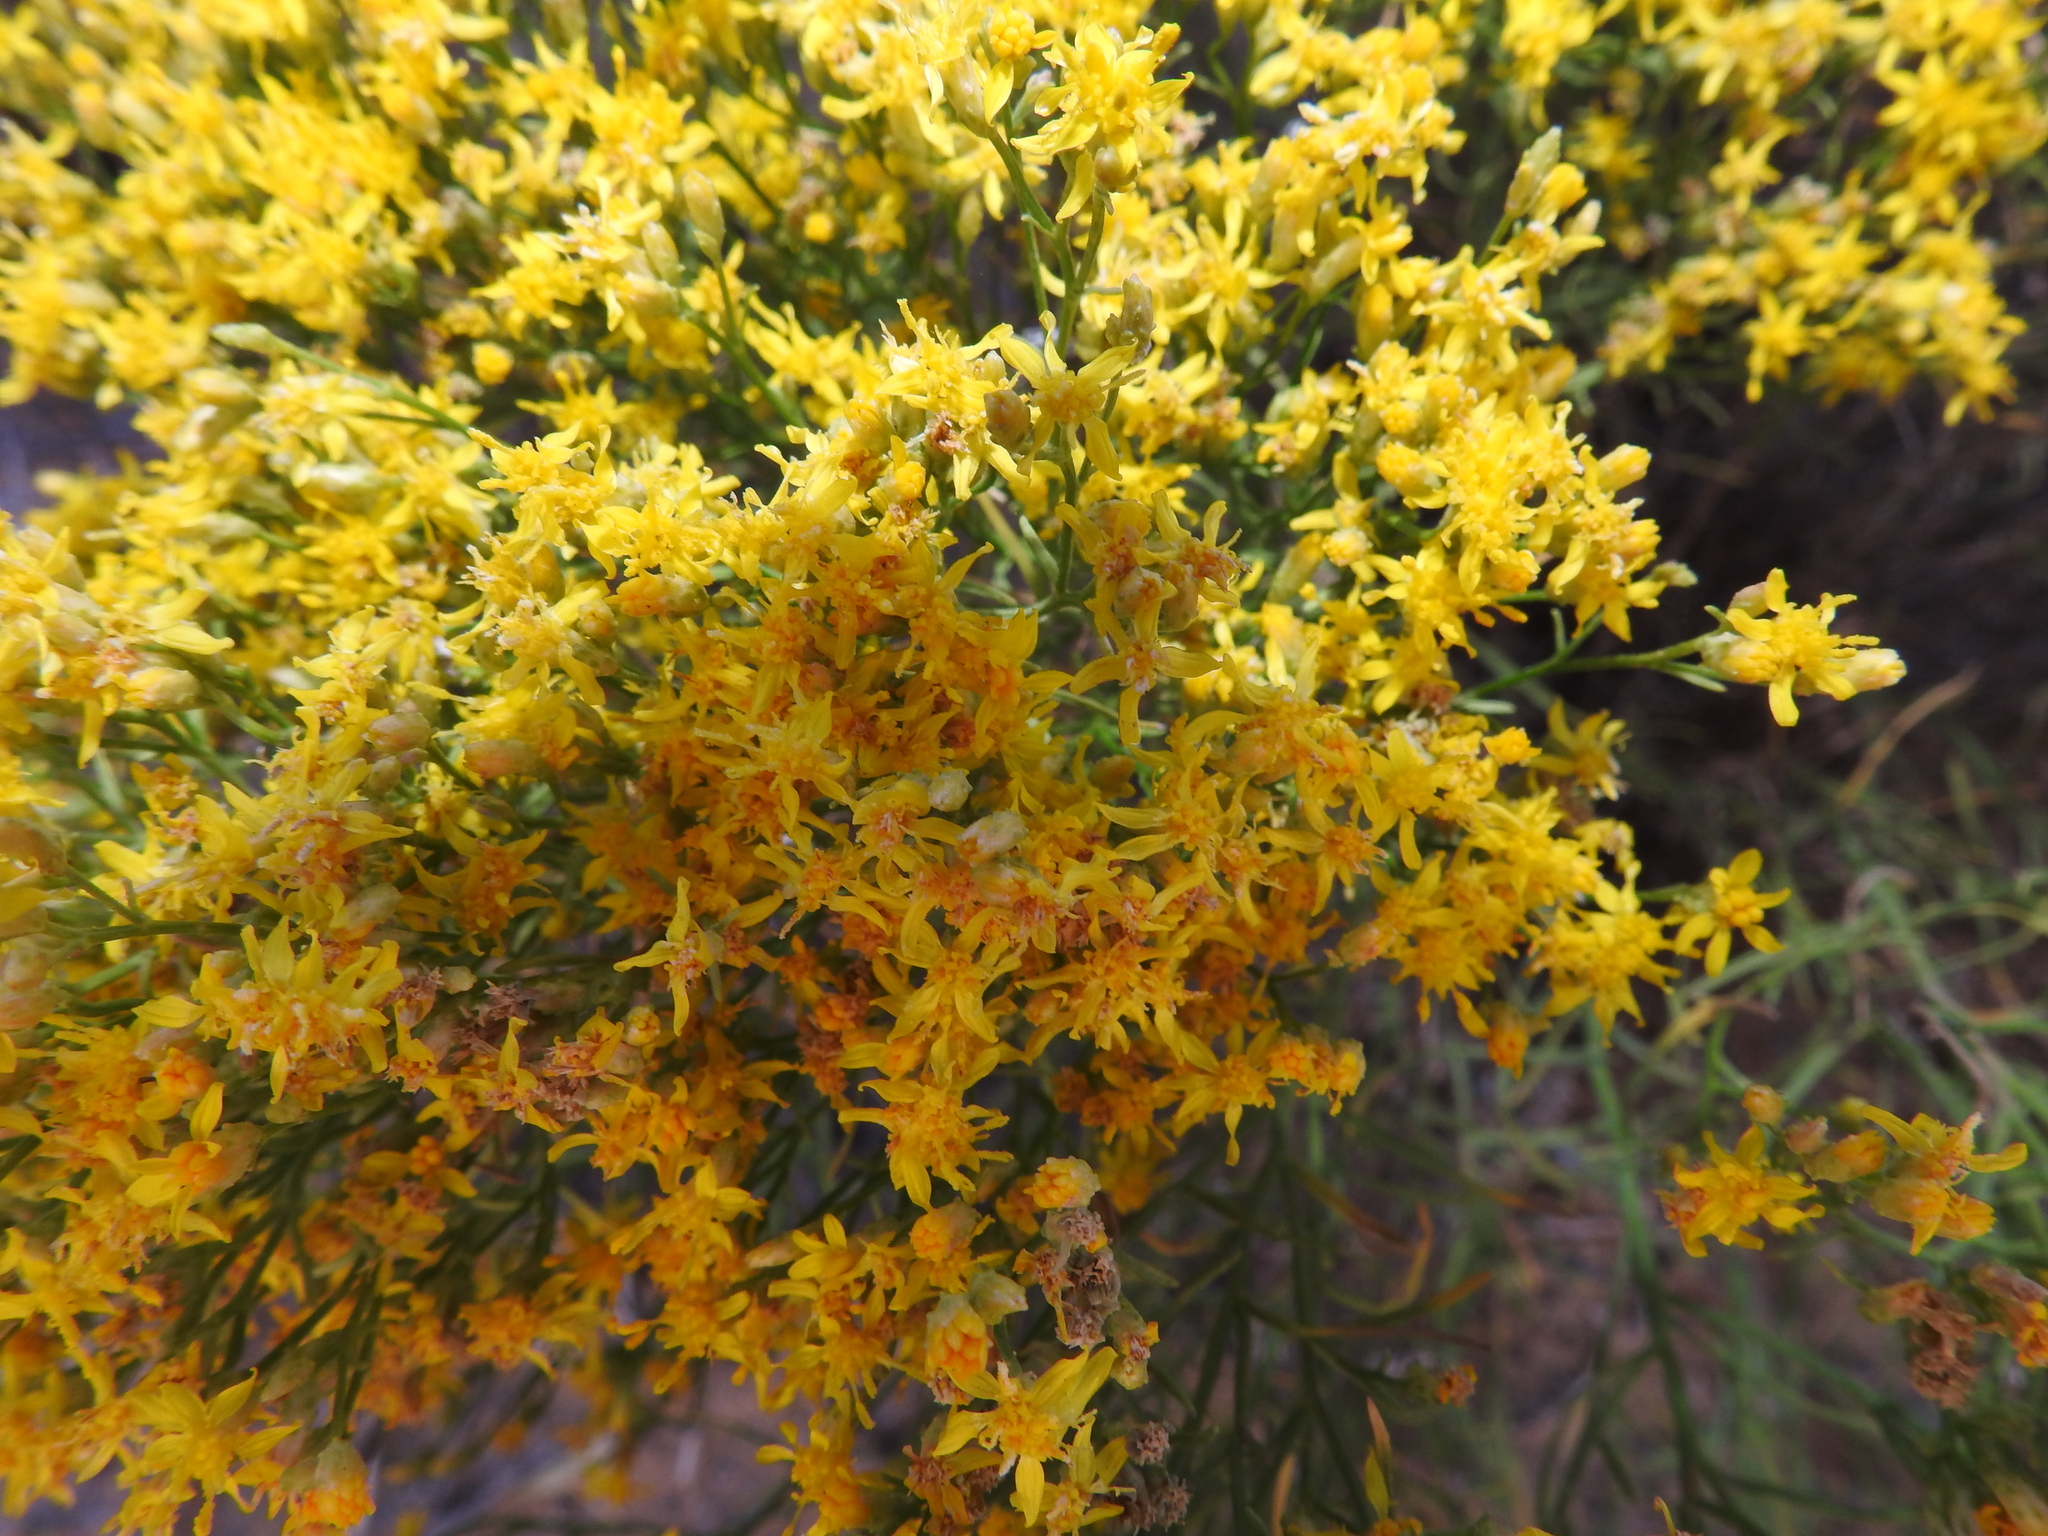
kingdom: Plantae
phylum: Tracheophyta
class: Magnoliopsida
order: Asterales
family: Asteraceae
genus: Gutierrezia
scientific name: Gutierrezia sarothrae
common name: Broom snakeweed
